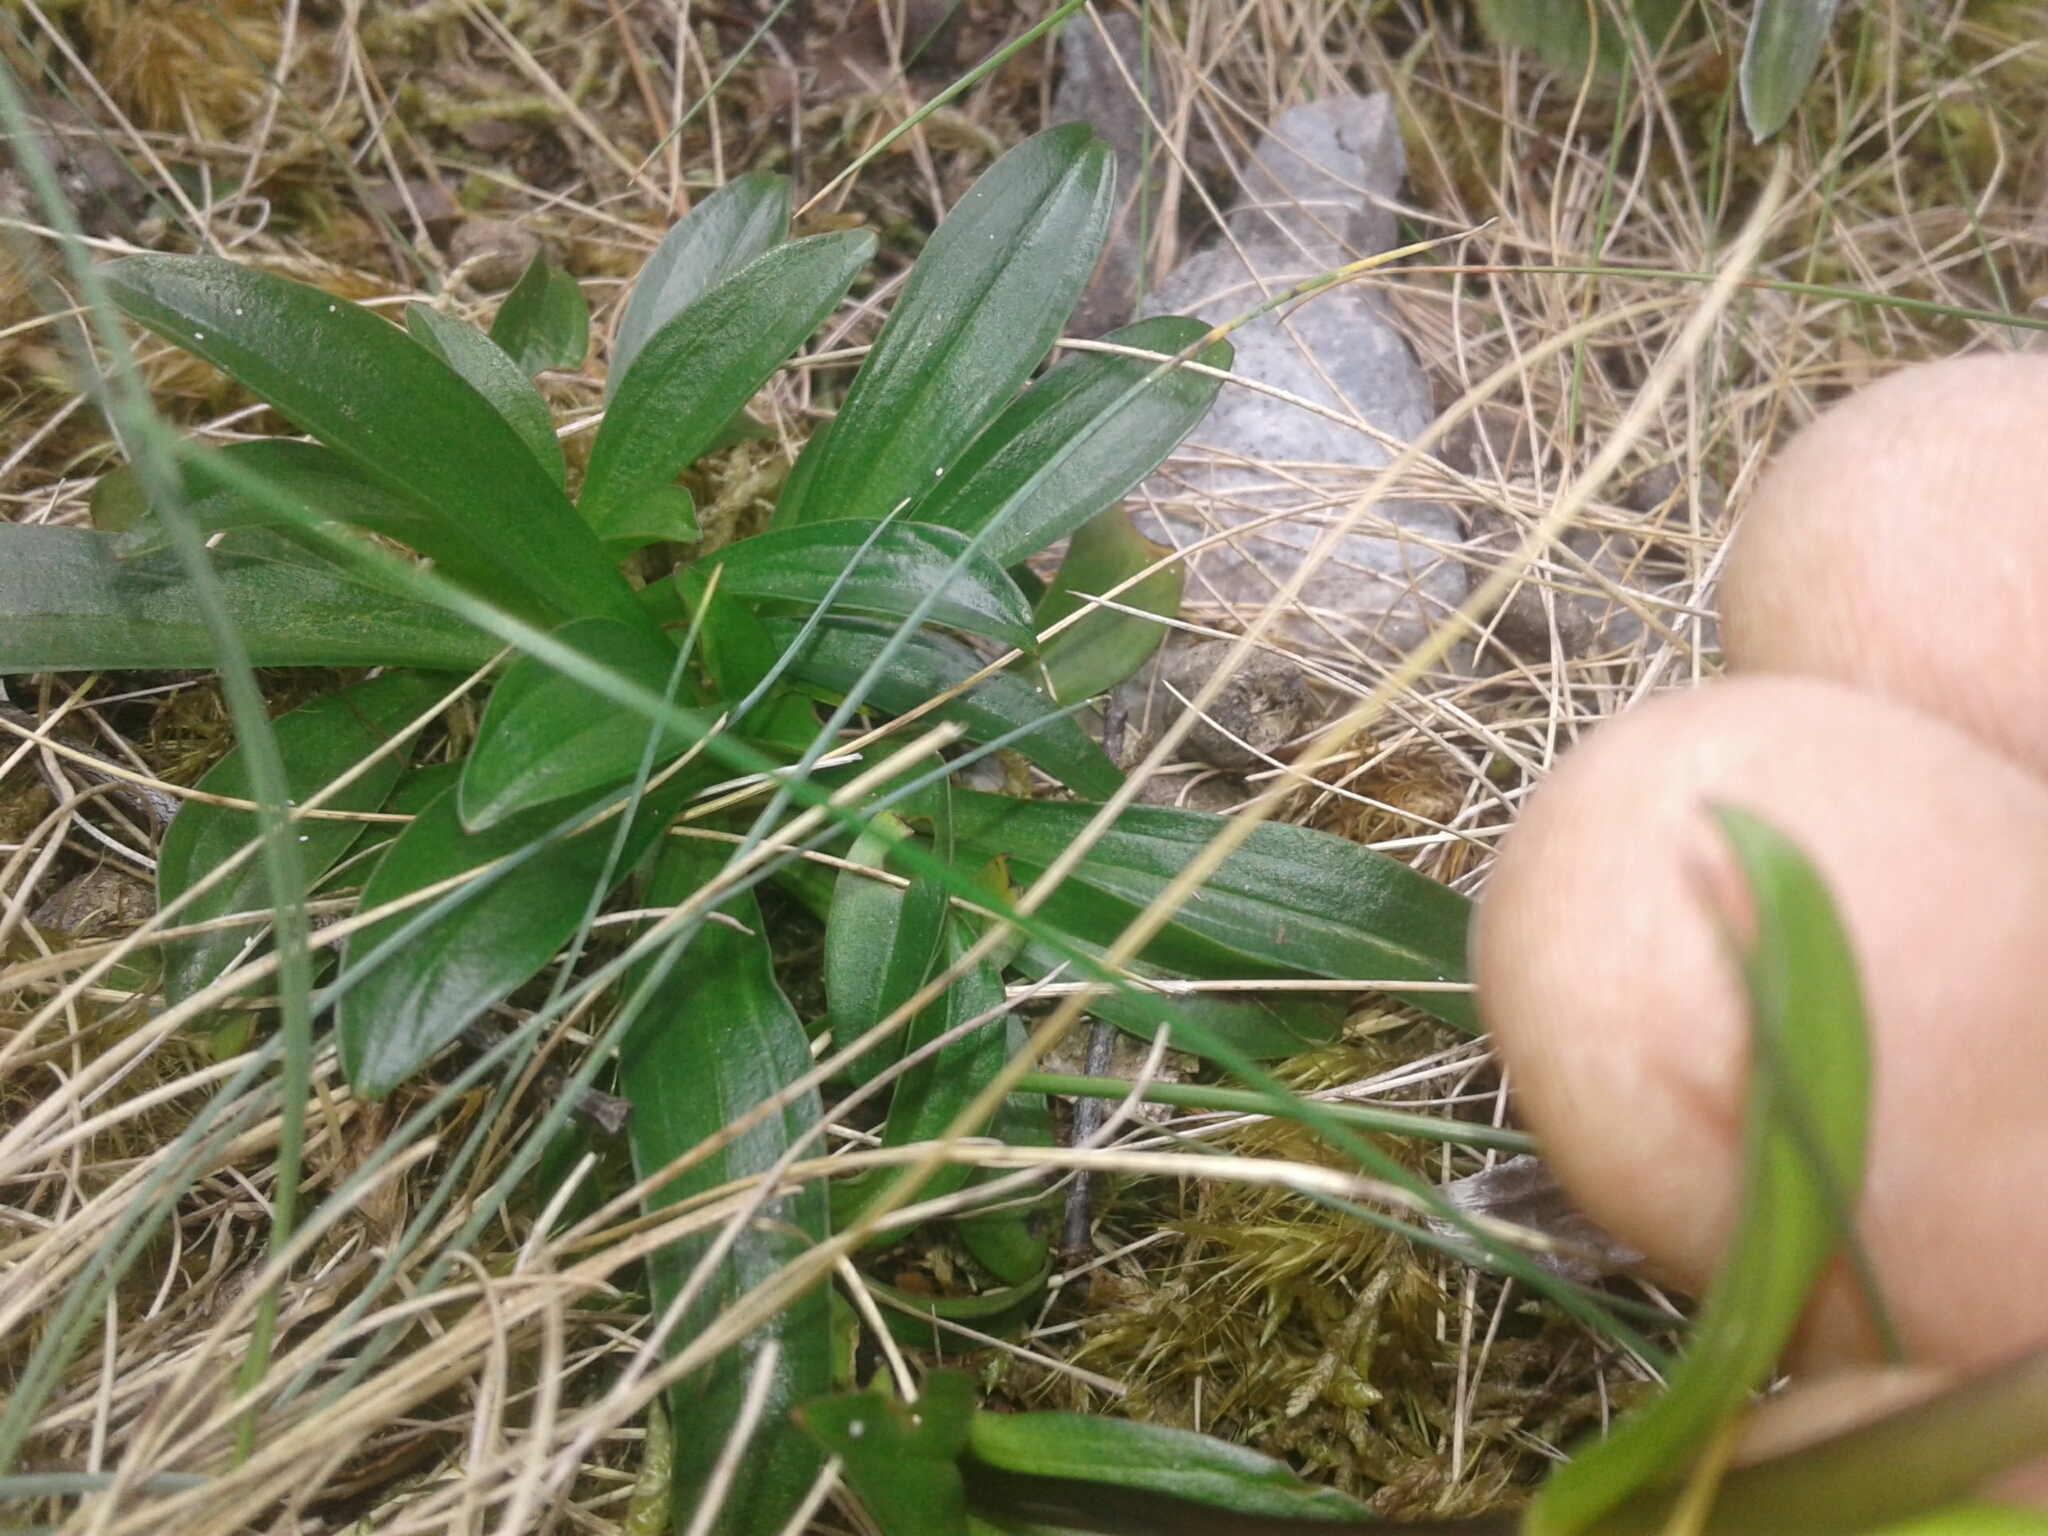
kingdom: Plantae
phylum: Tracheophyta
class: Magnoliopsida
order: Gentianales
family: Gentianaceae
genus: Gentianella
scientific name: Gentianella bellidifolia
